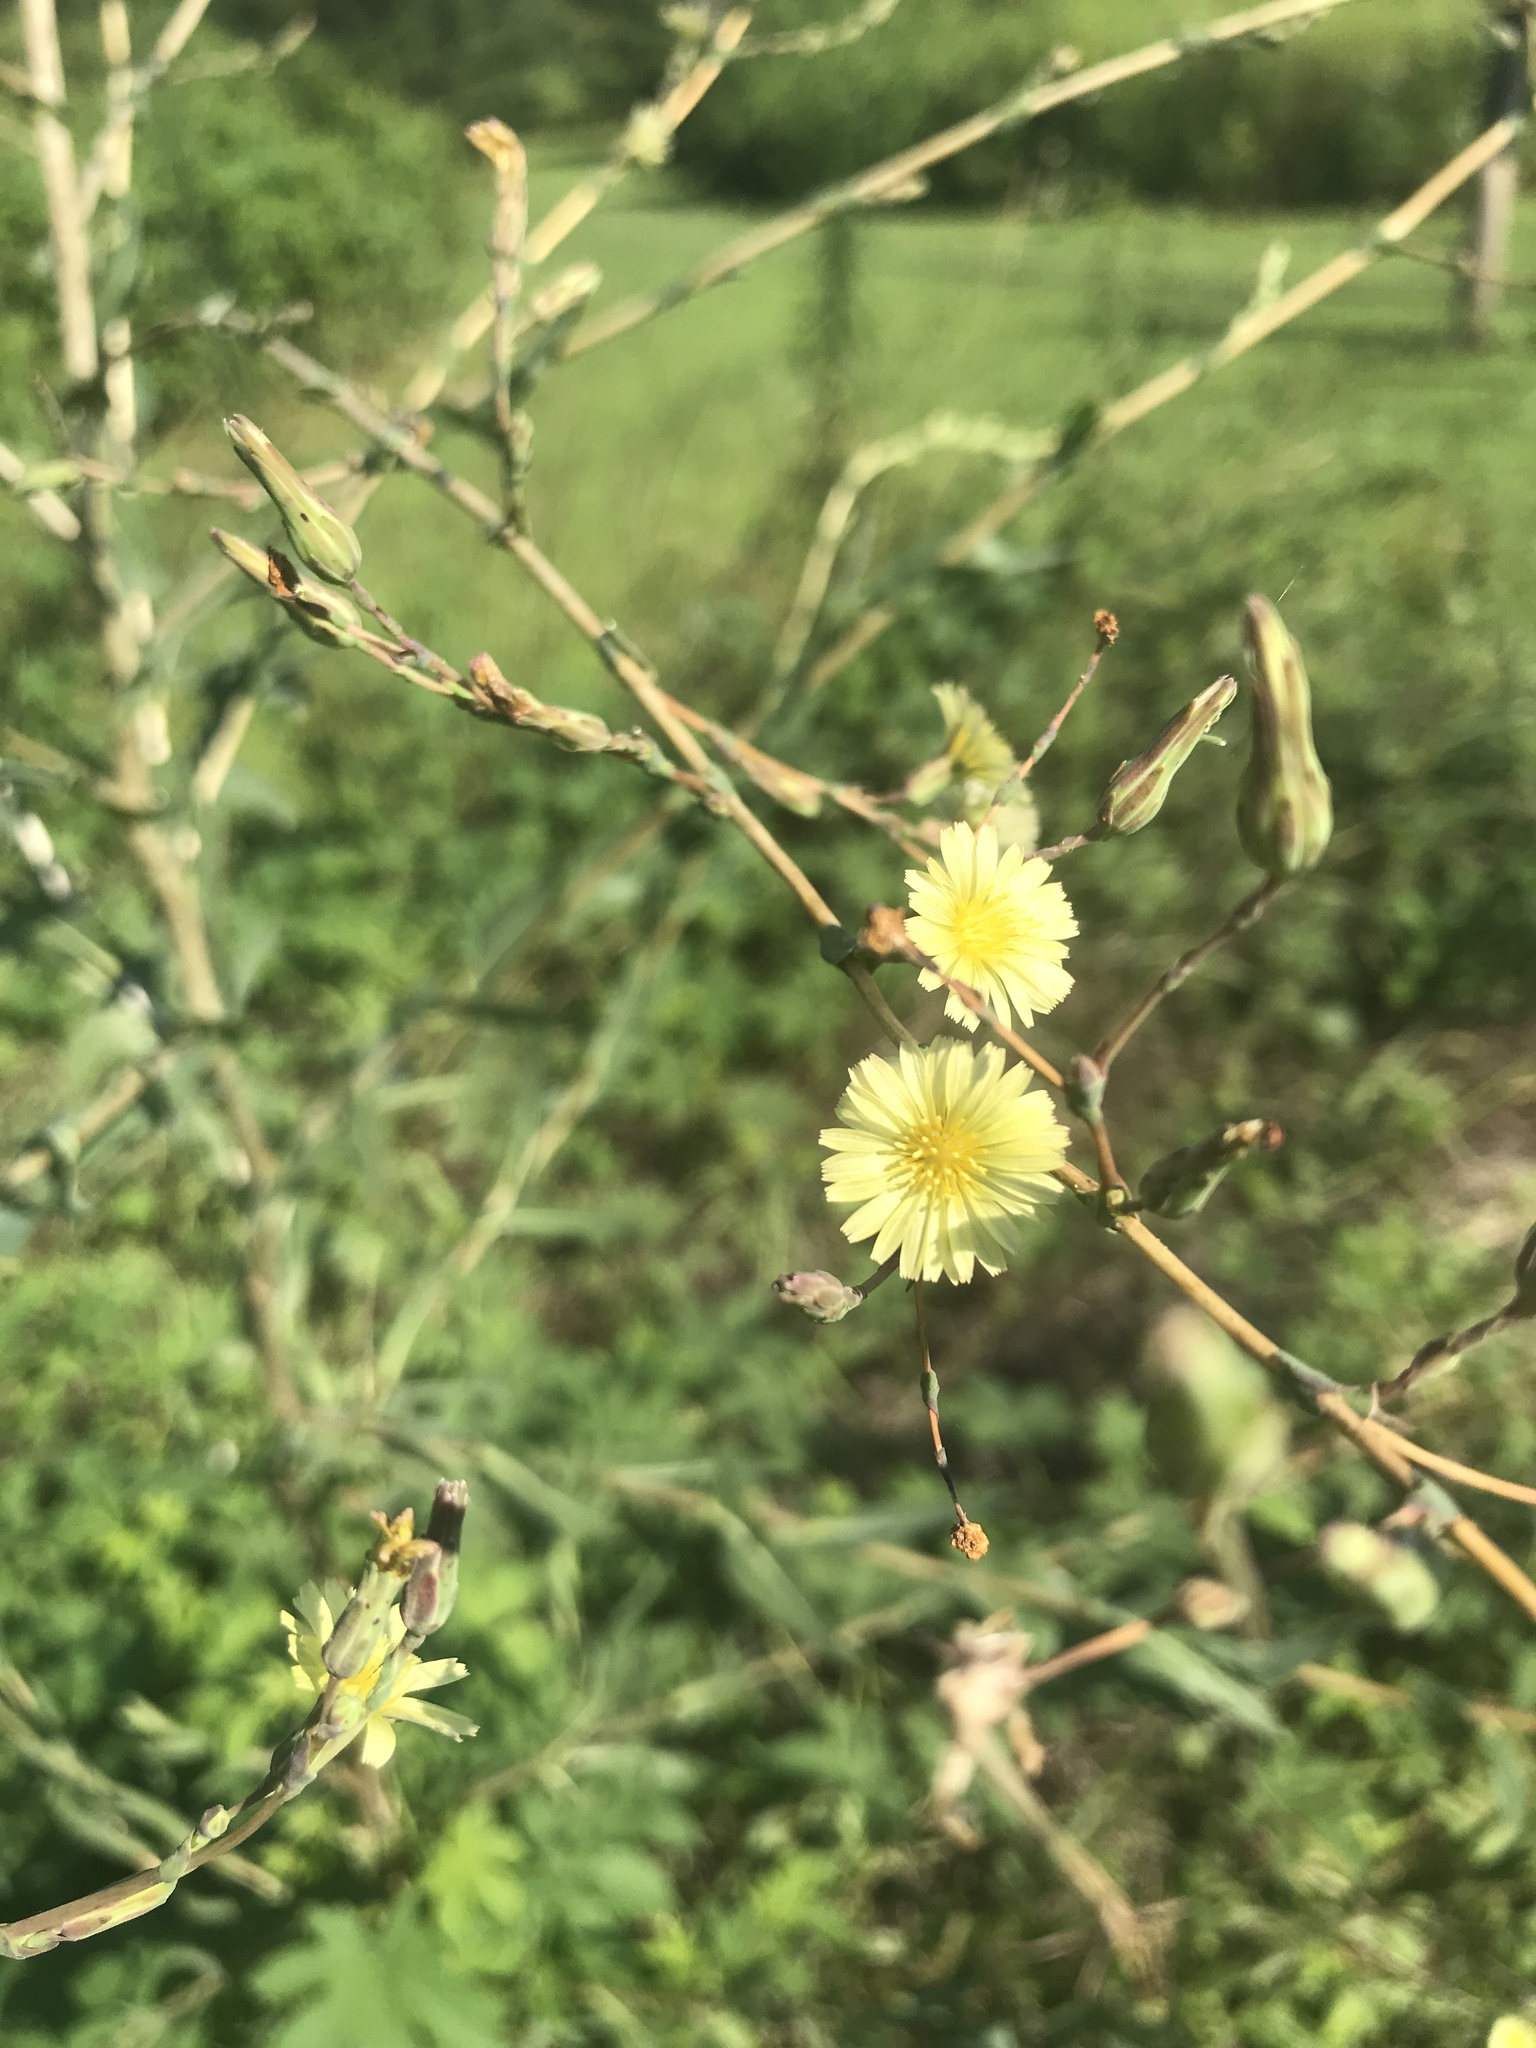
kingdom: Plantae
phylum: Tracheophyta
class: Magnoliopsida
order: Asterales
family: Asteraceae
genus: Lactuca
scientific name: Lactuca serriola
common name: Prickly lettuce
